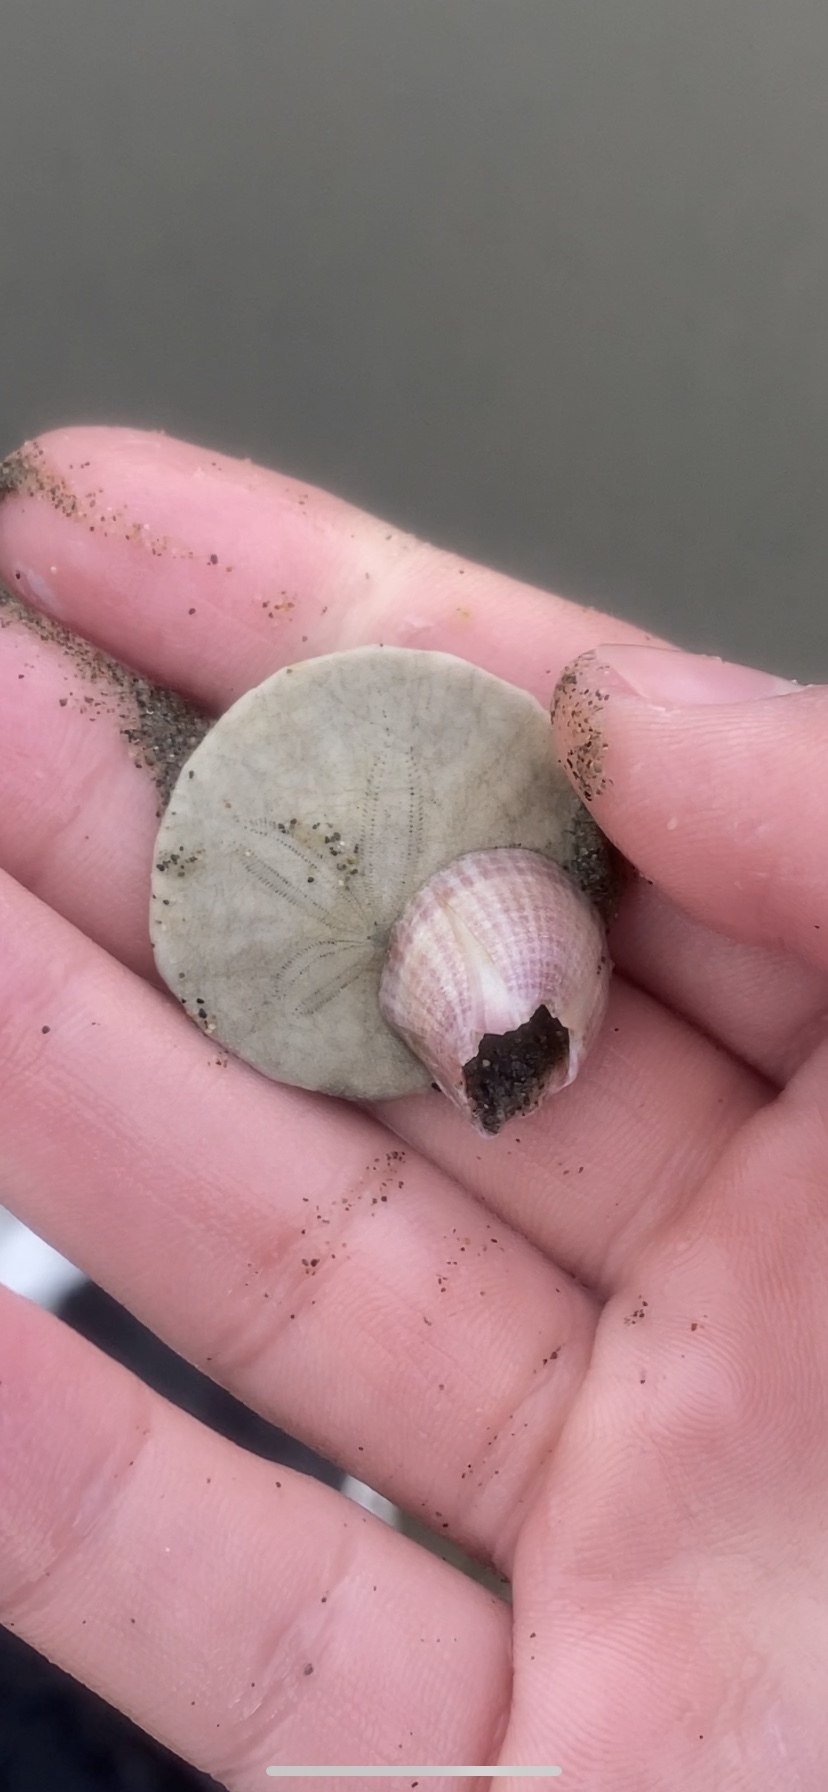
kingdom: Animalia
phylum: Arthropoda
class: Maxillopoda
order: Sessilia
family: Balanidae
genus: Paraconcavus
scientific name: Paraconcavus pacificus
